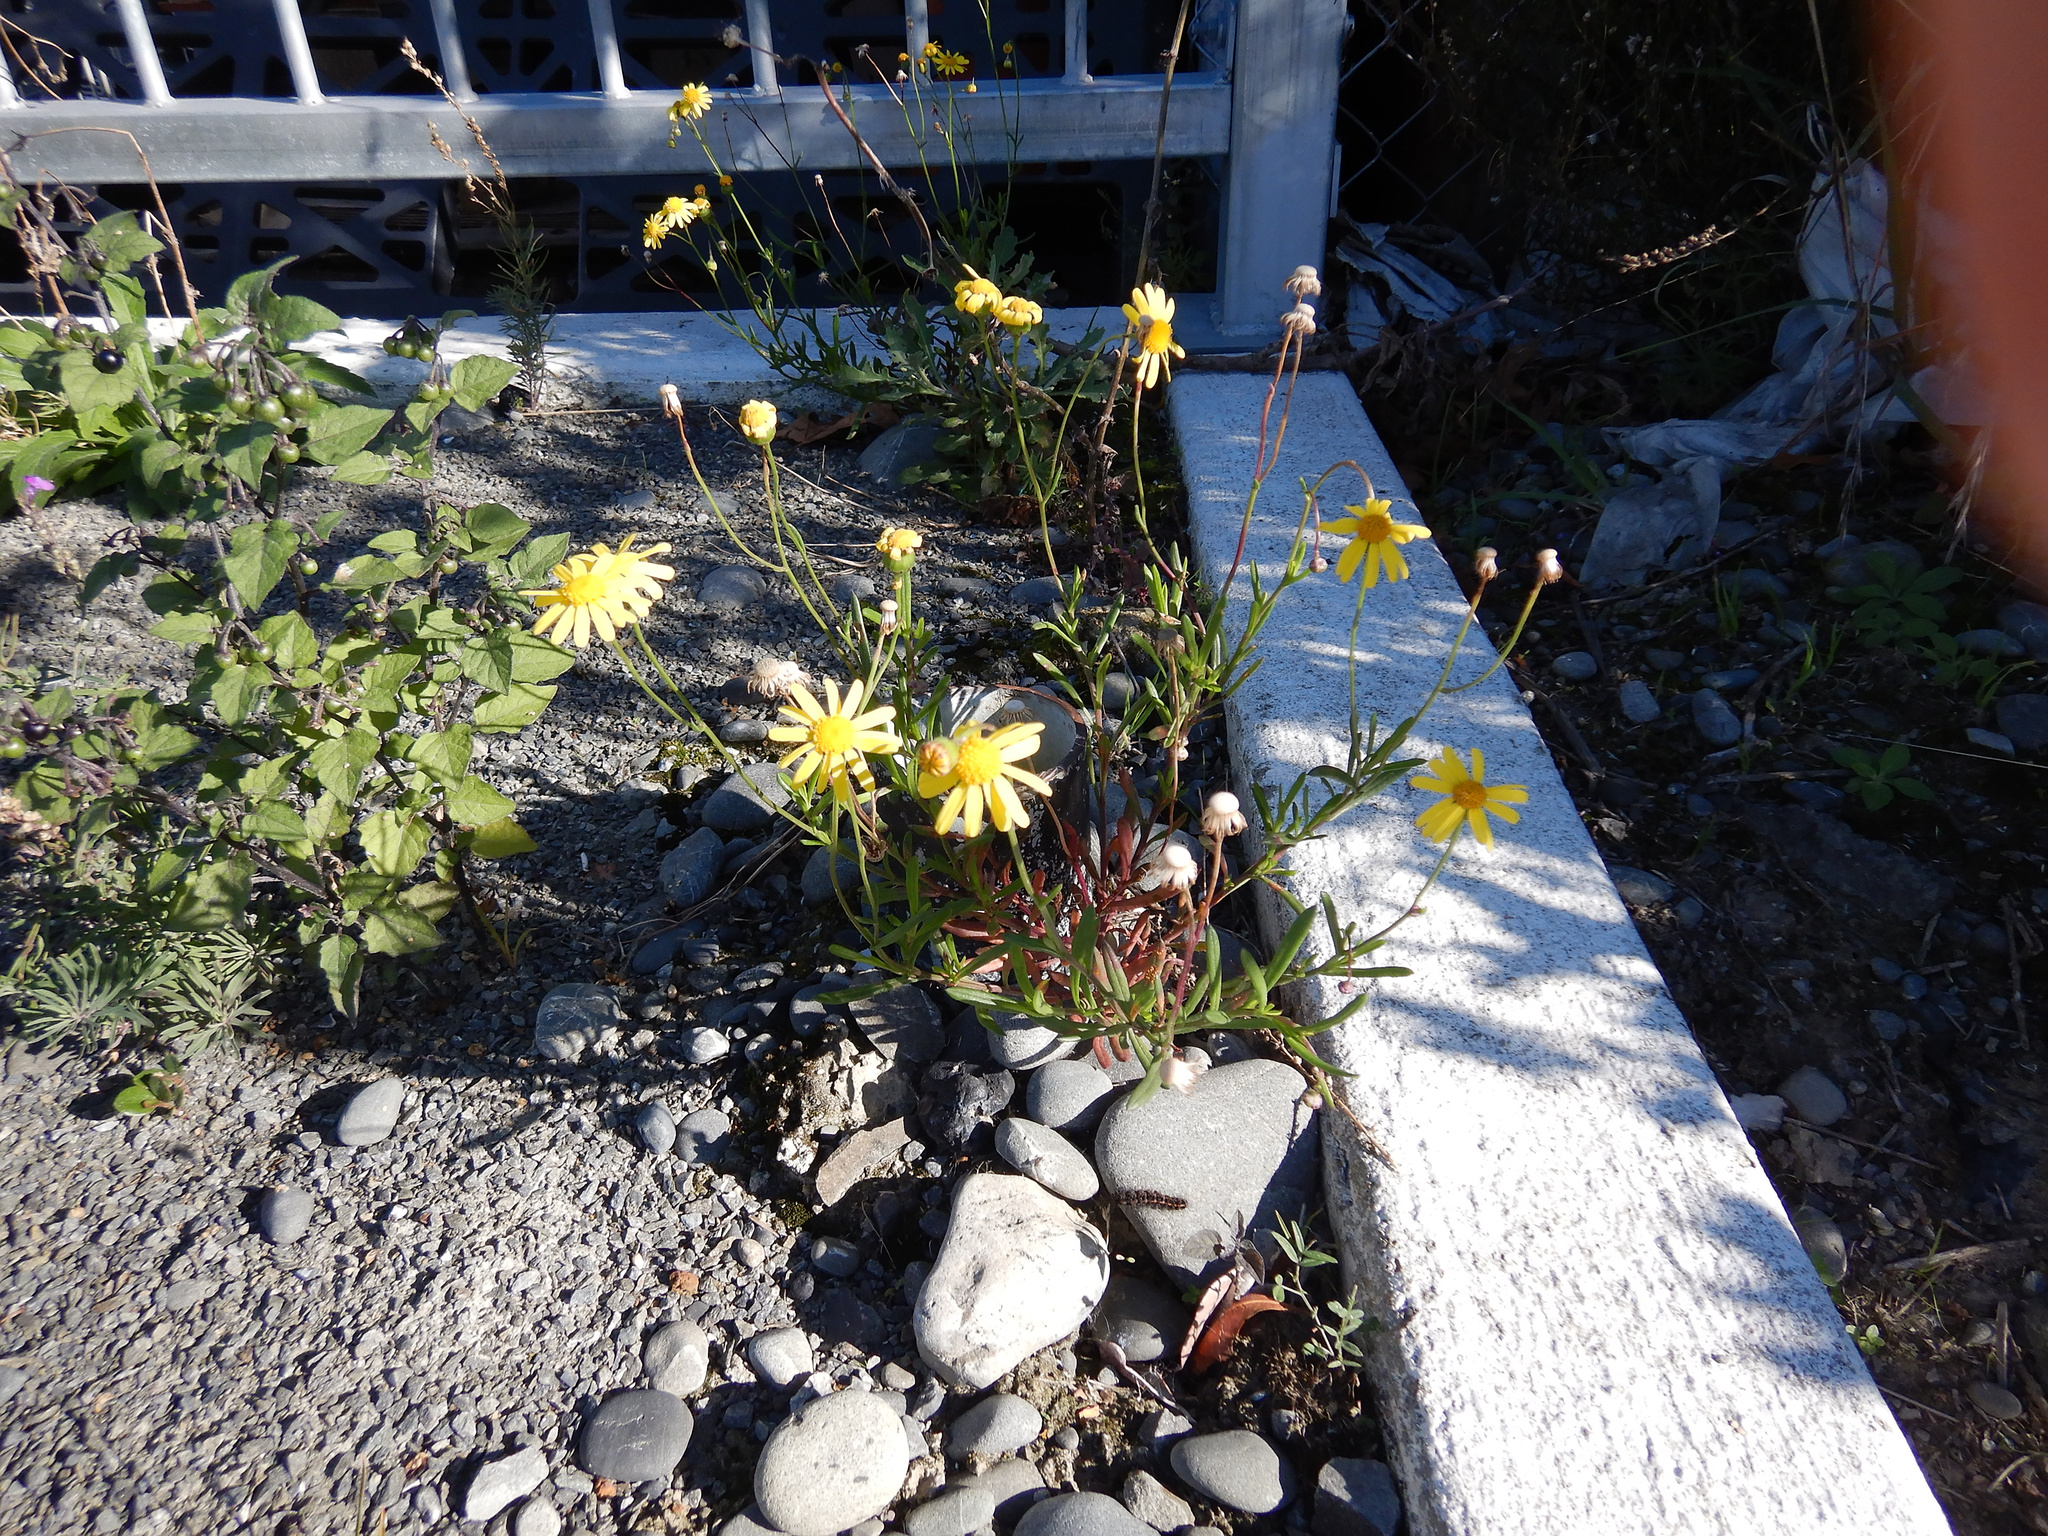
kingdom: Plantae
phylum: Tracheophyta
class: Magnoliopsida
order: Asterales
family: Asteraceae
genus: Senecio
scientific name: Senecio skirrhodon
